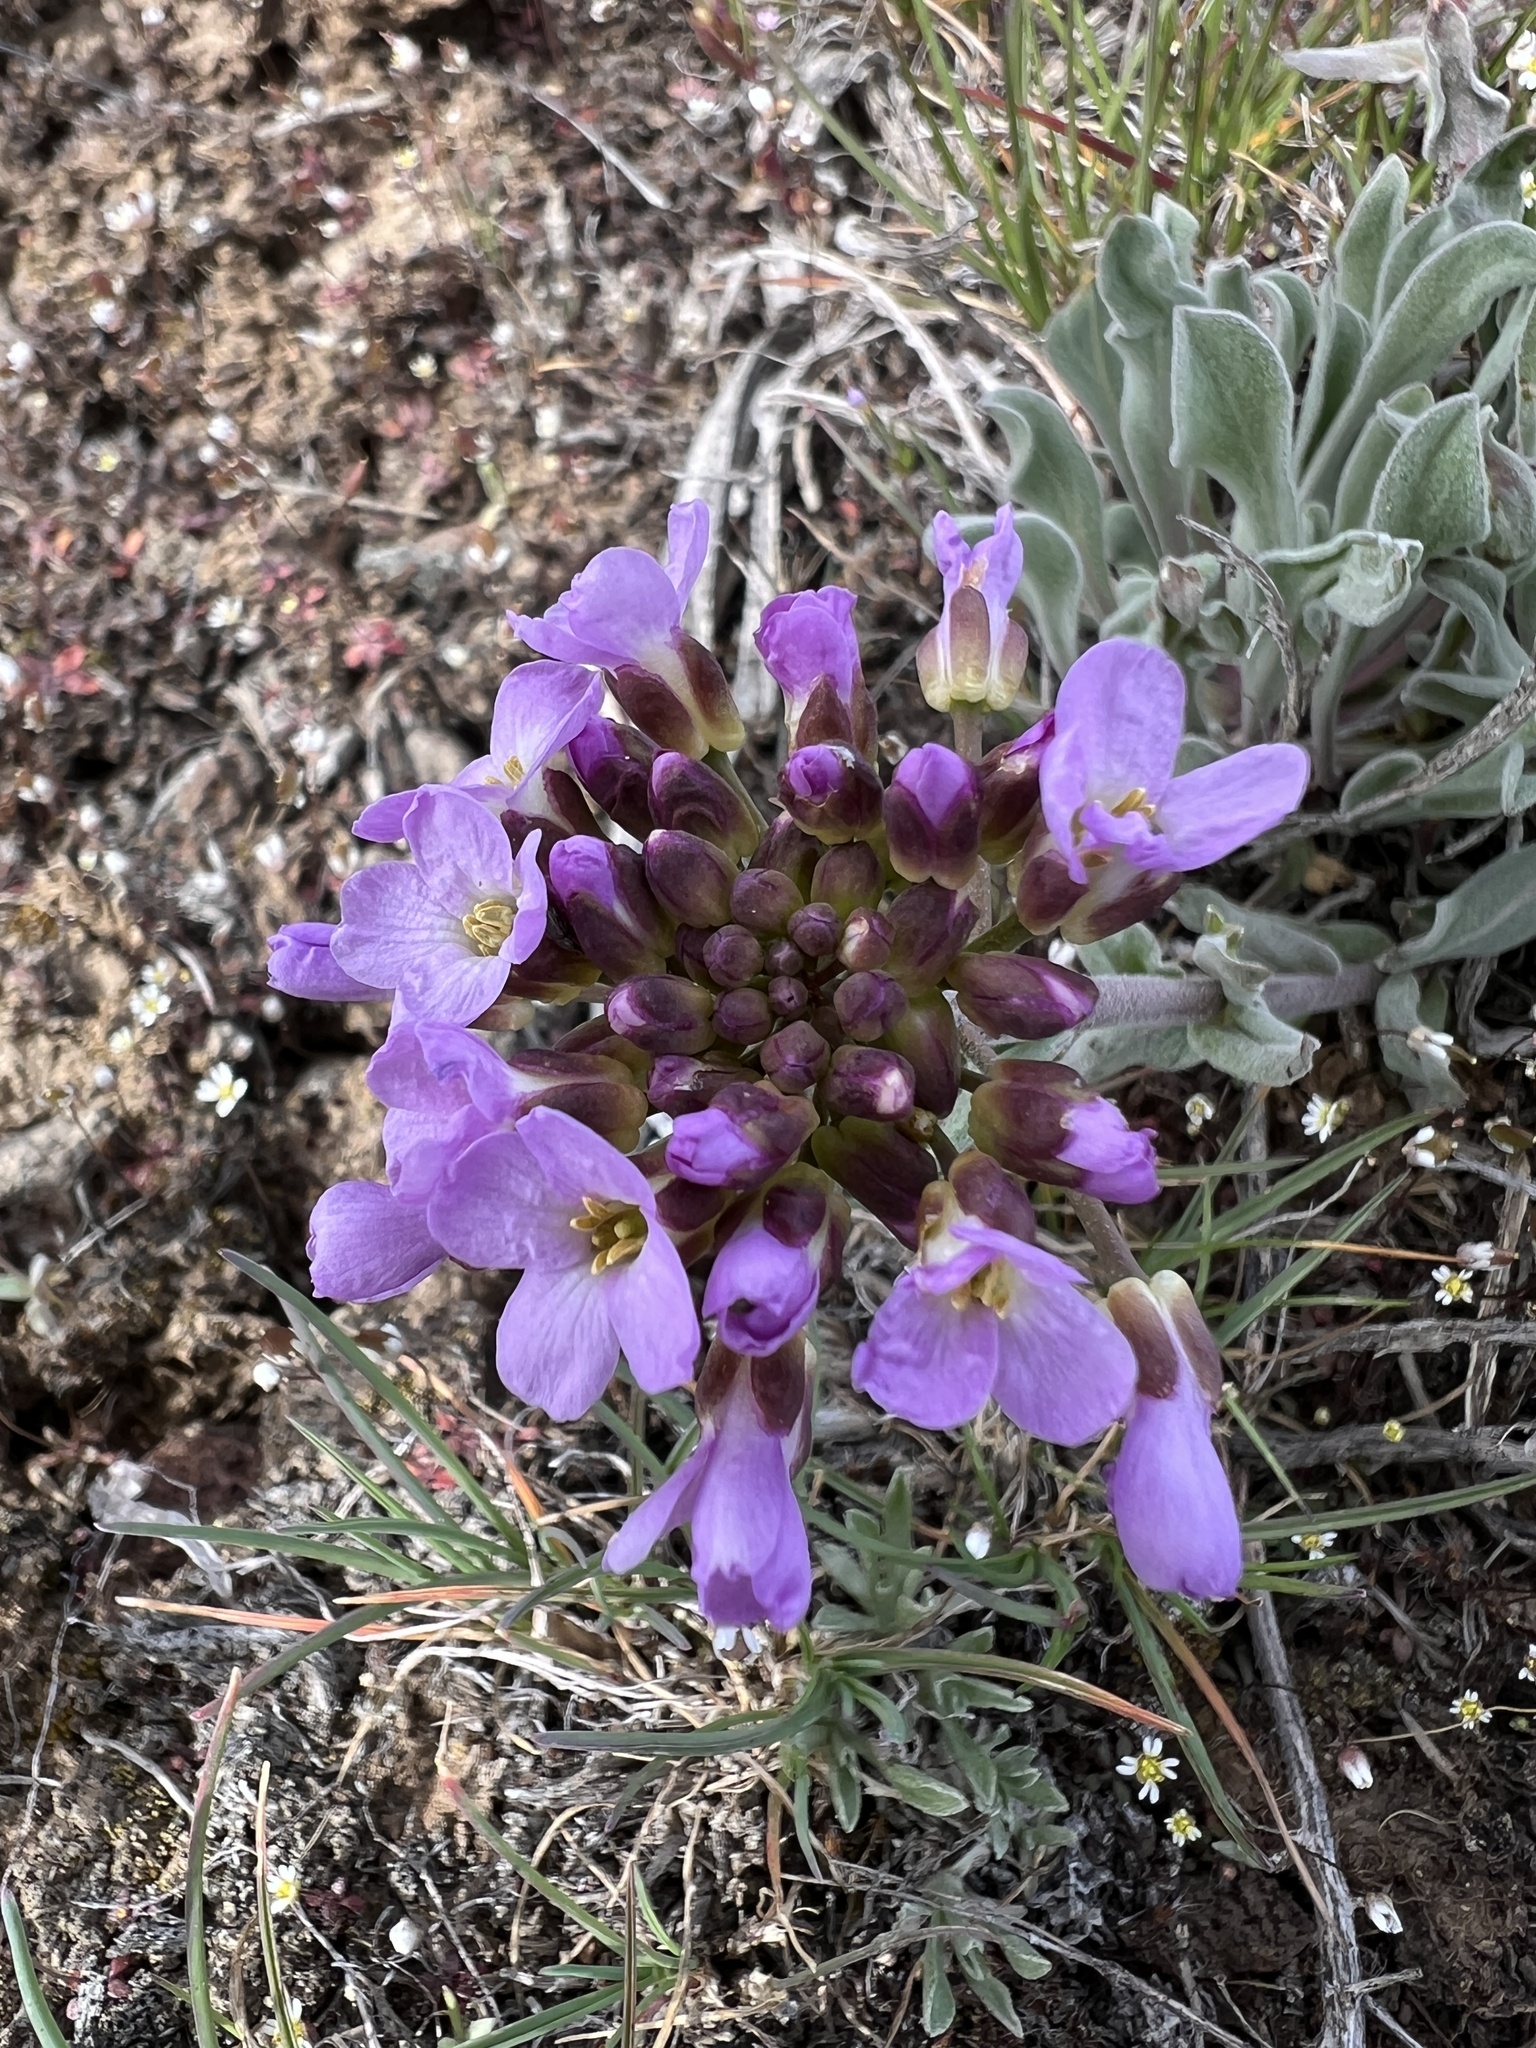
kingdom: Plantae
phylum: Tracheophyta
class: Magnoliopsida
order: Brassicales
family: Brassicaceae
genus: Phoenicaulis
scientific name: Phoenicaulis cheiranthoides
